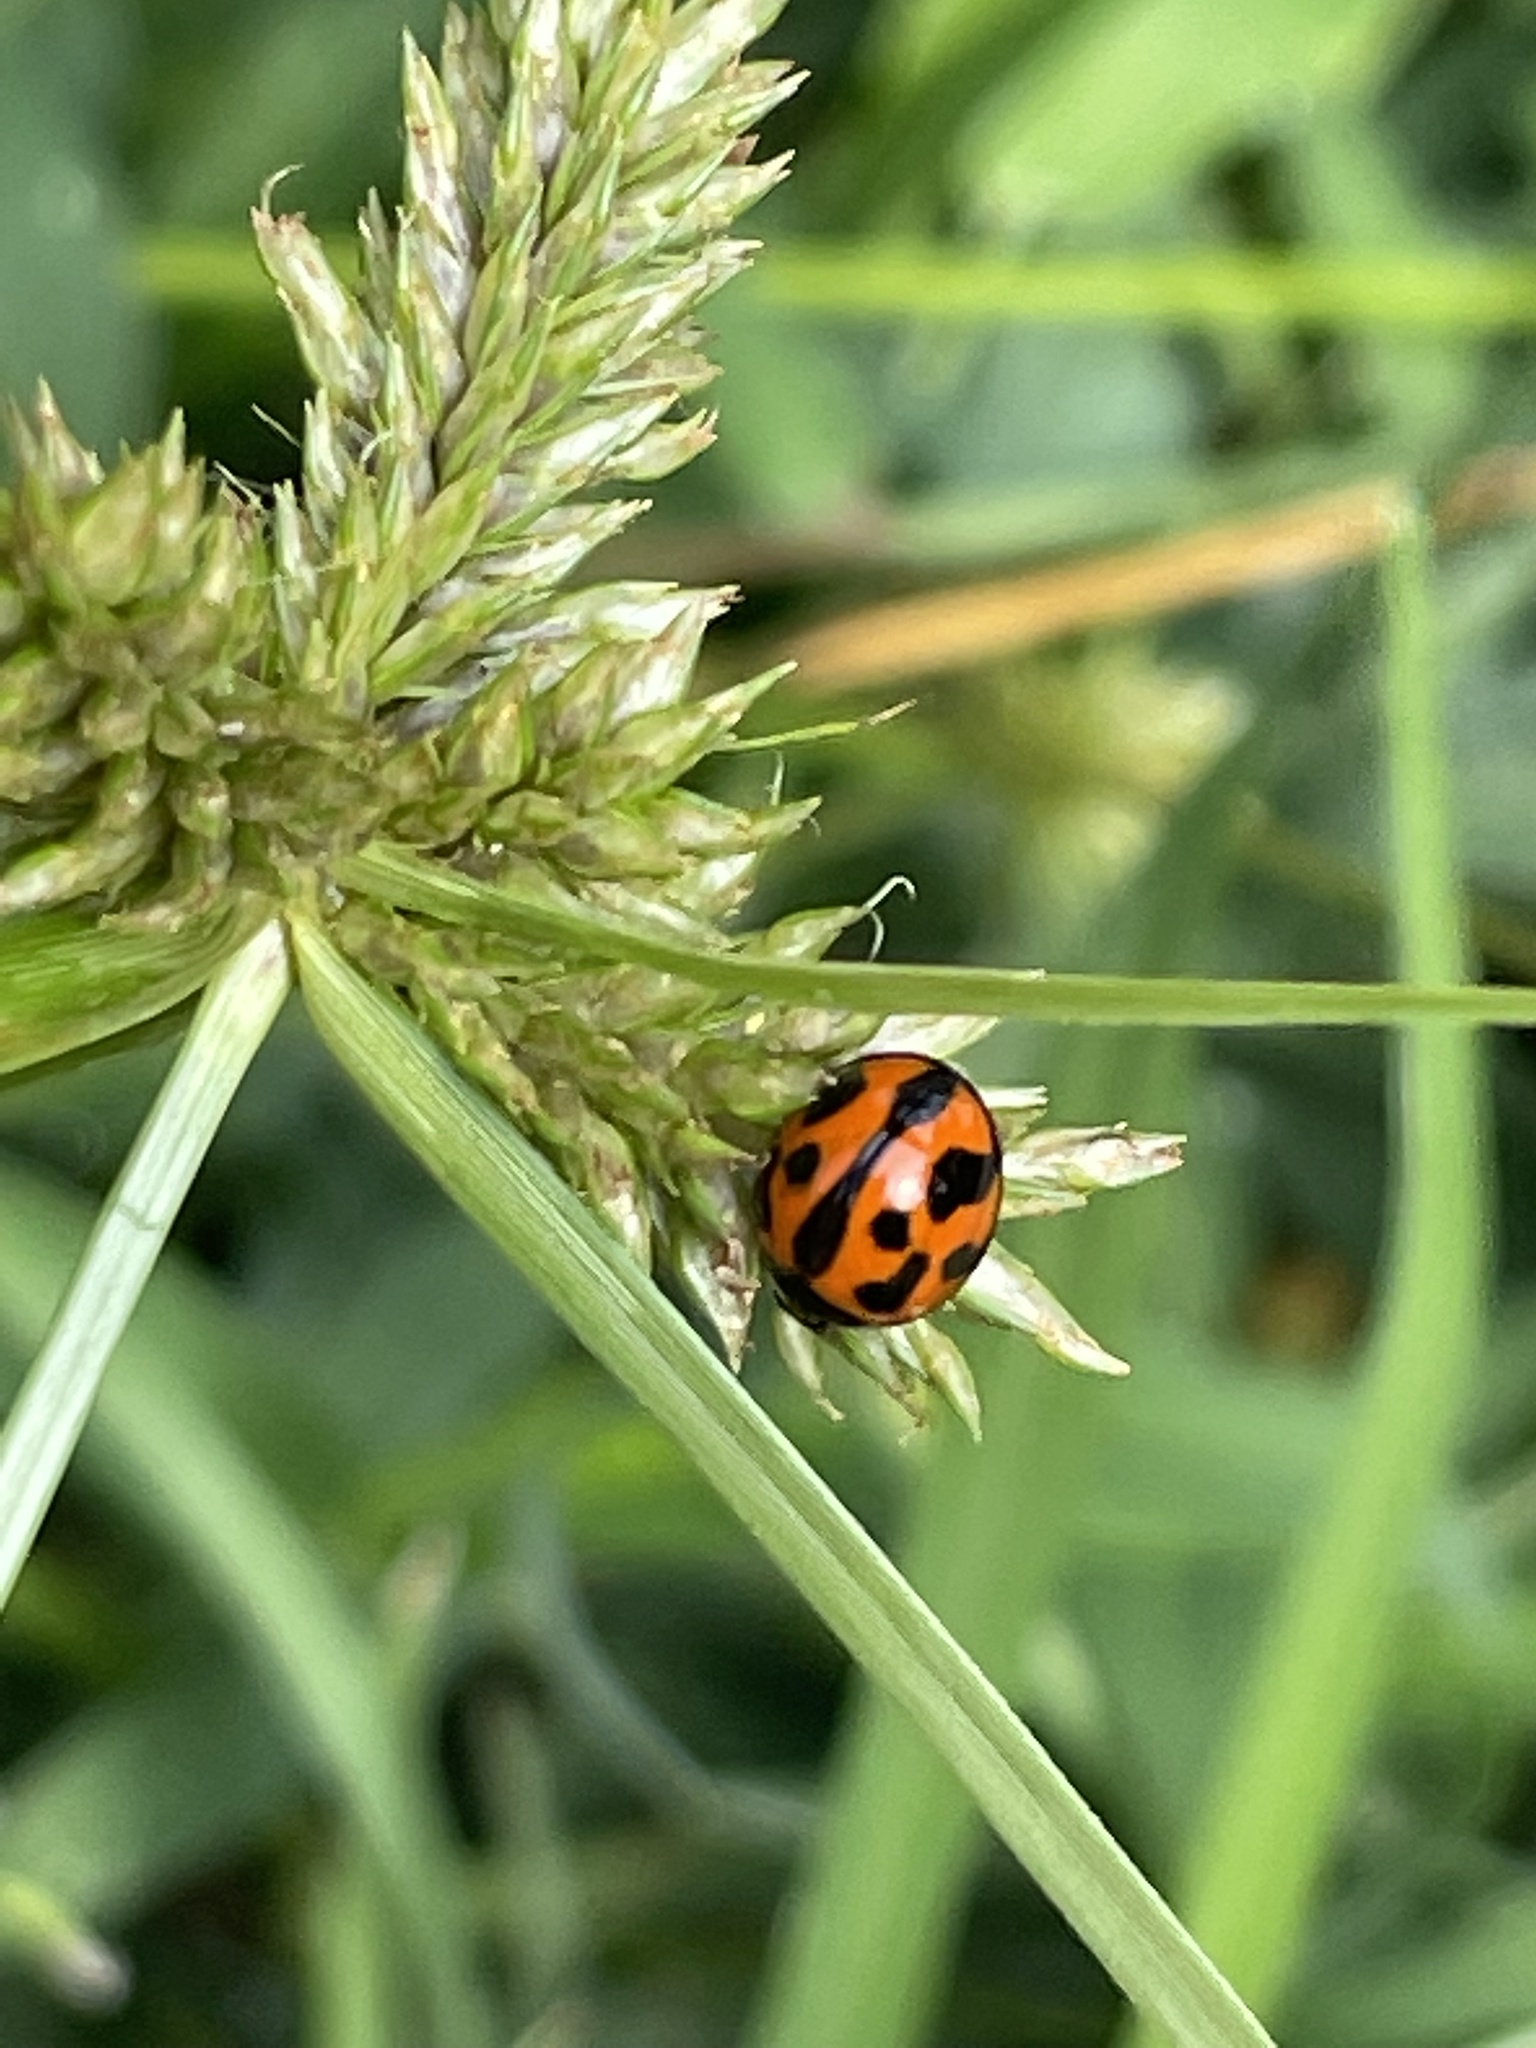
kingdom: Animalia
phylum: Arthropoda
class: Insecta
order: Coleoptera
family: Coccinellidae
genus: Coelophora
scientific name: Coelophora inaequalis
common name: Common australian lady beetle
